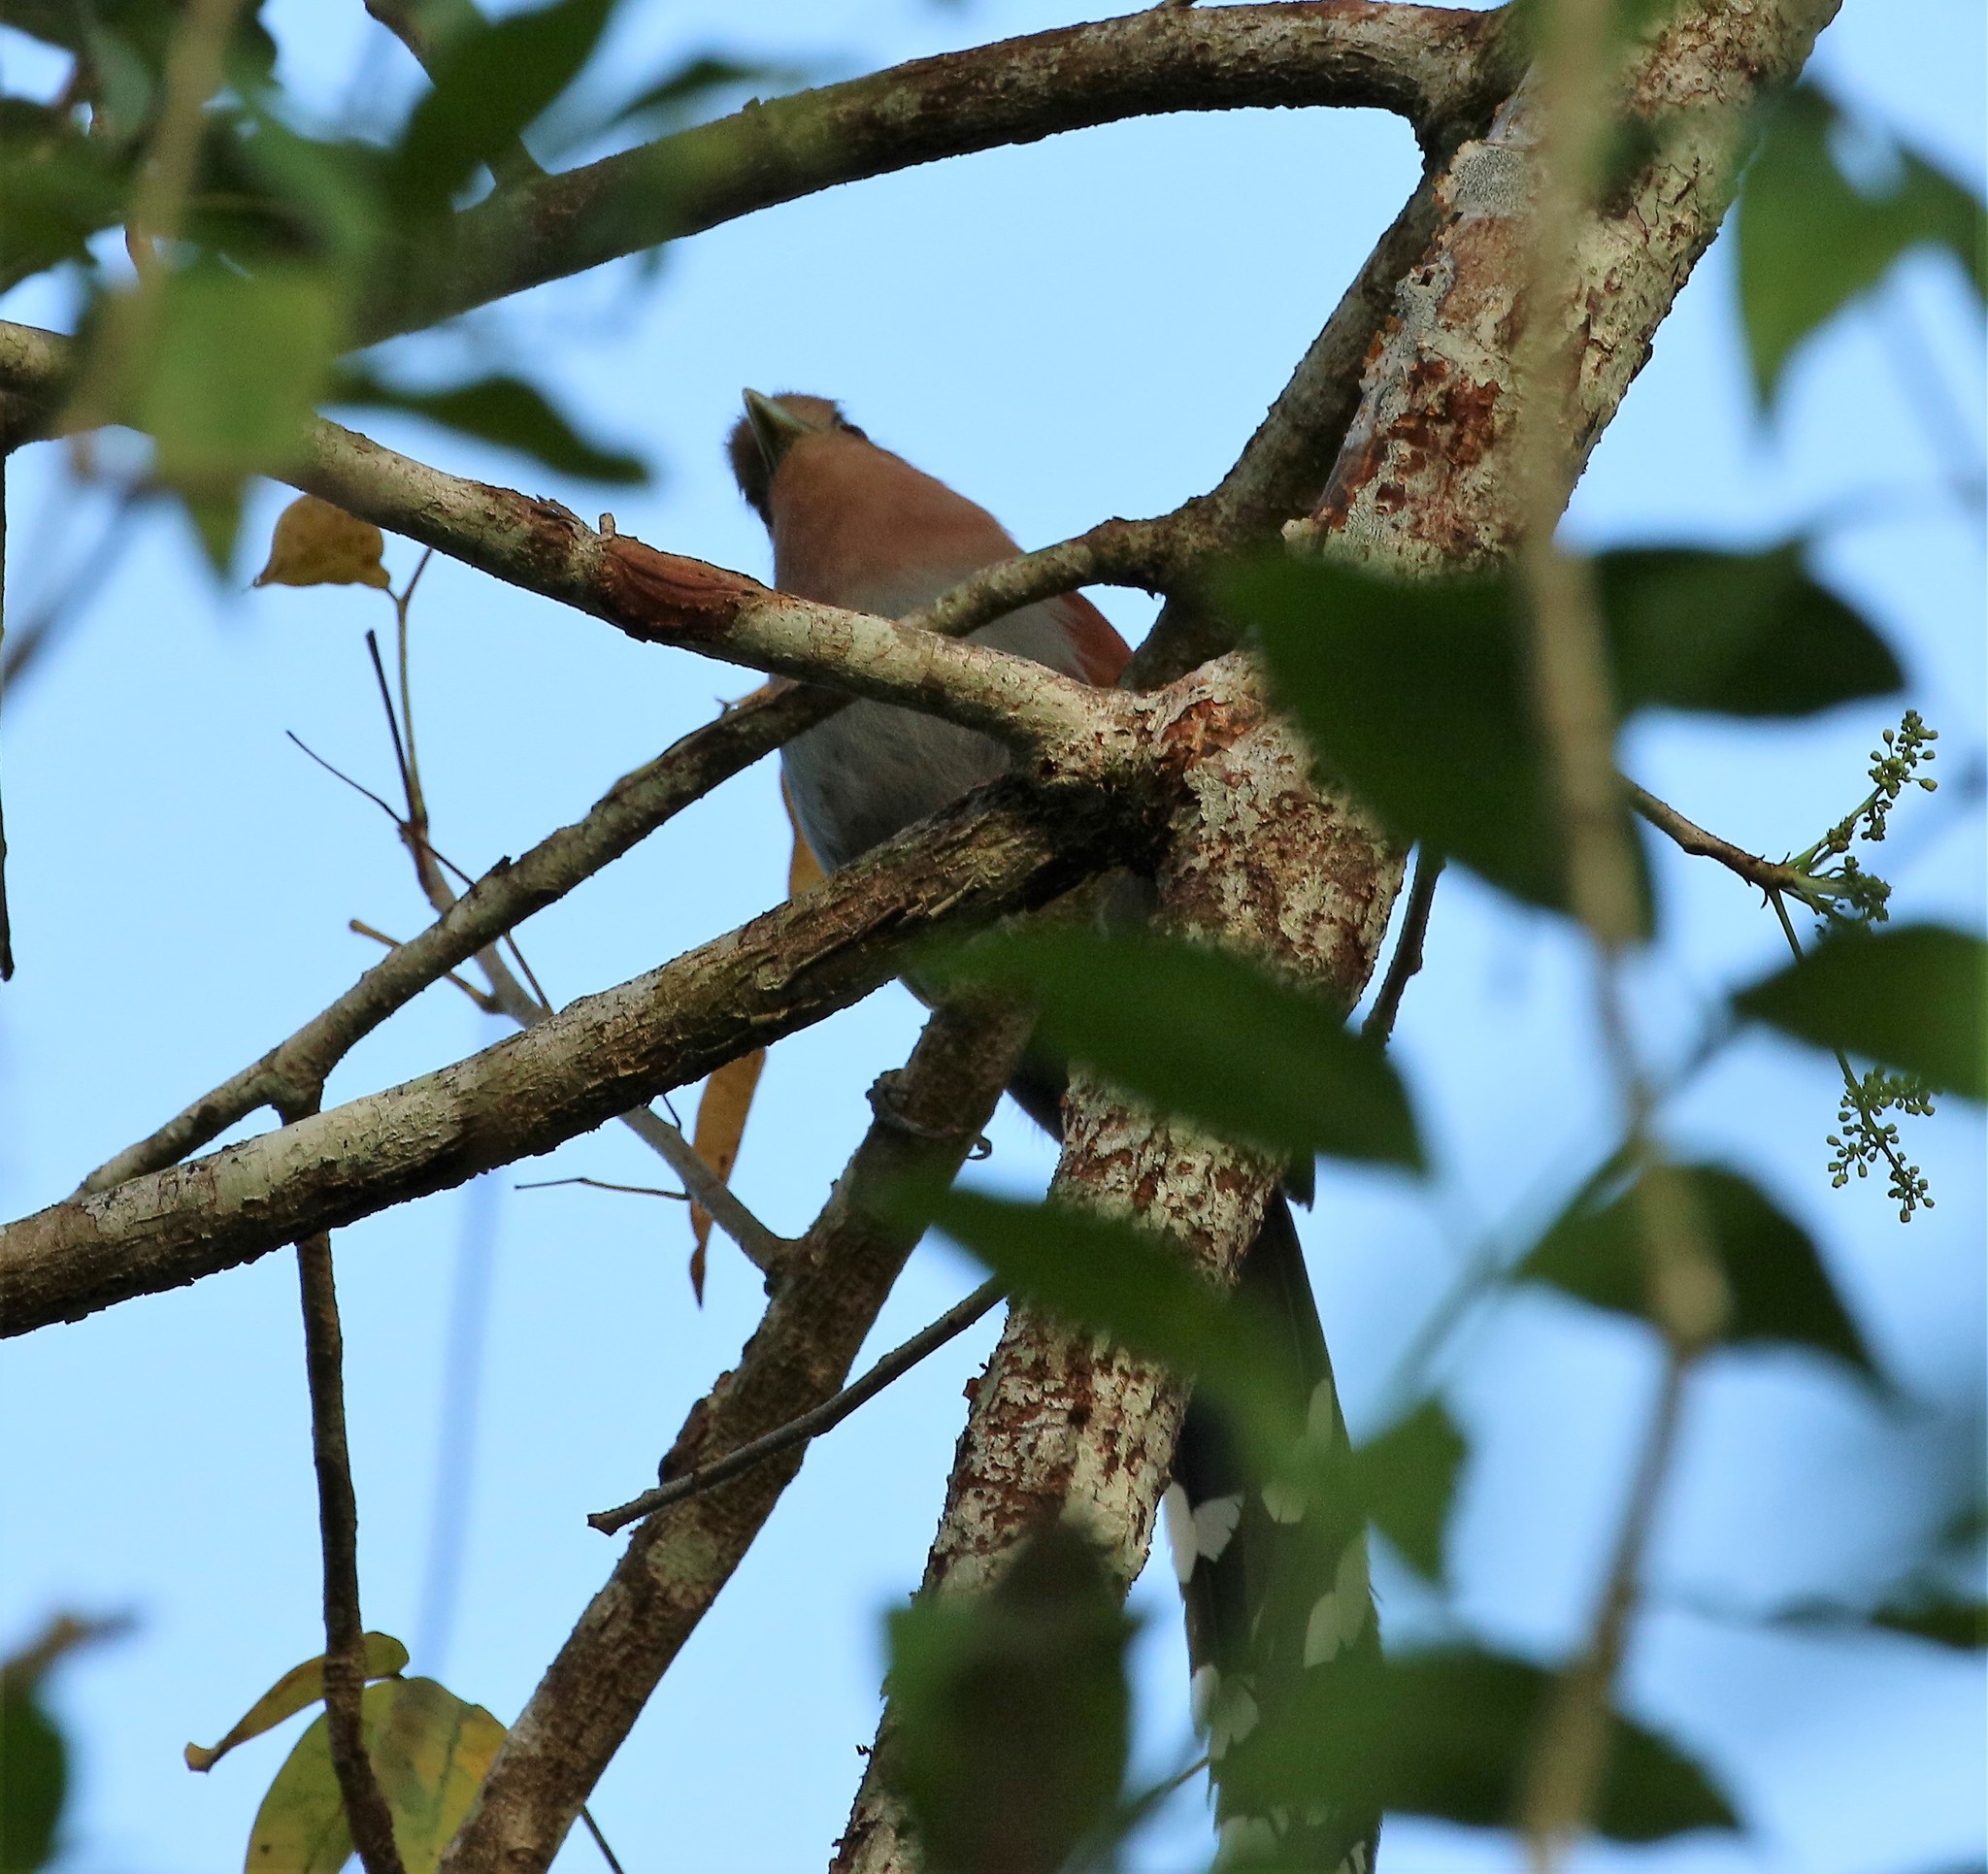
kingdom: Animalia
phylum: Chordata
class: Aves
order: Cuculiformes
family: Cuculidae
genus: Piaya
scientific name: Piaya cayana
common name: Squirrel cuckoo
